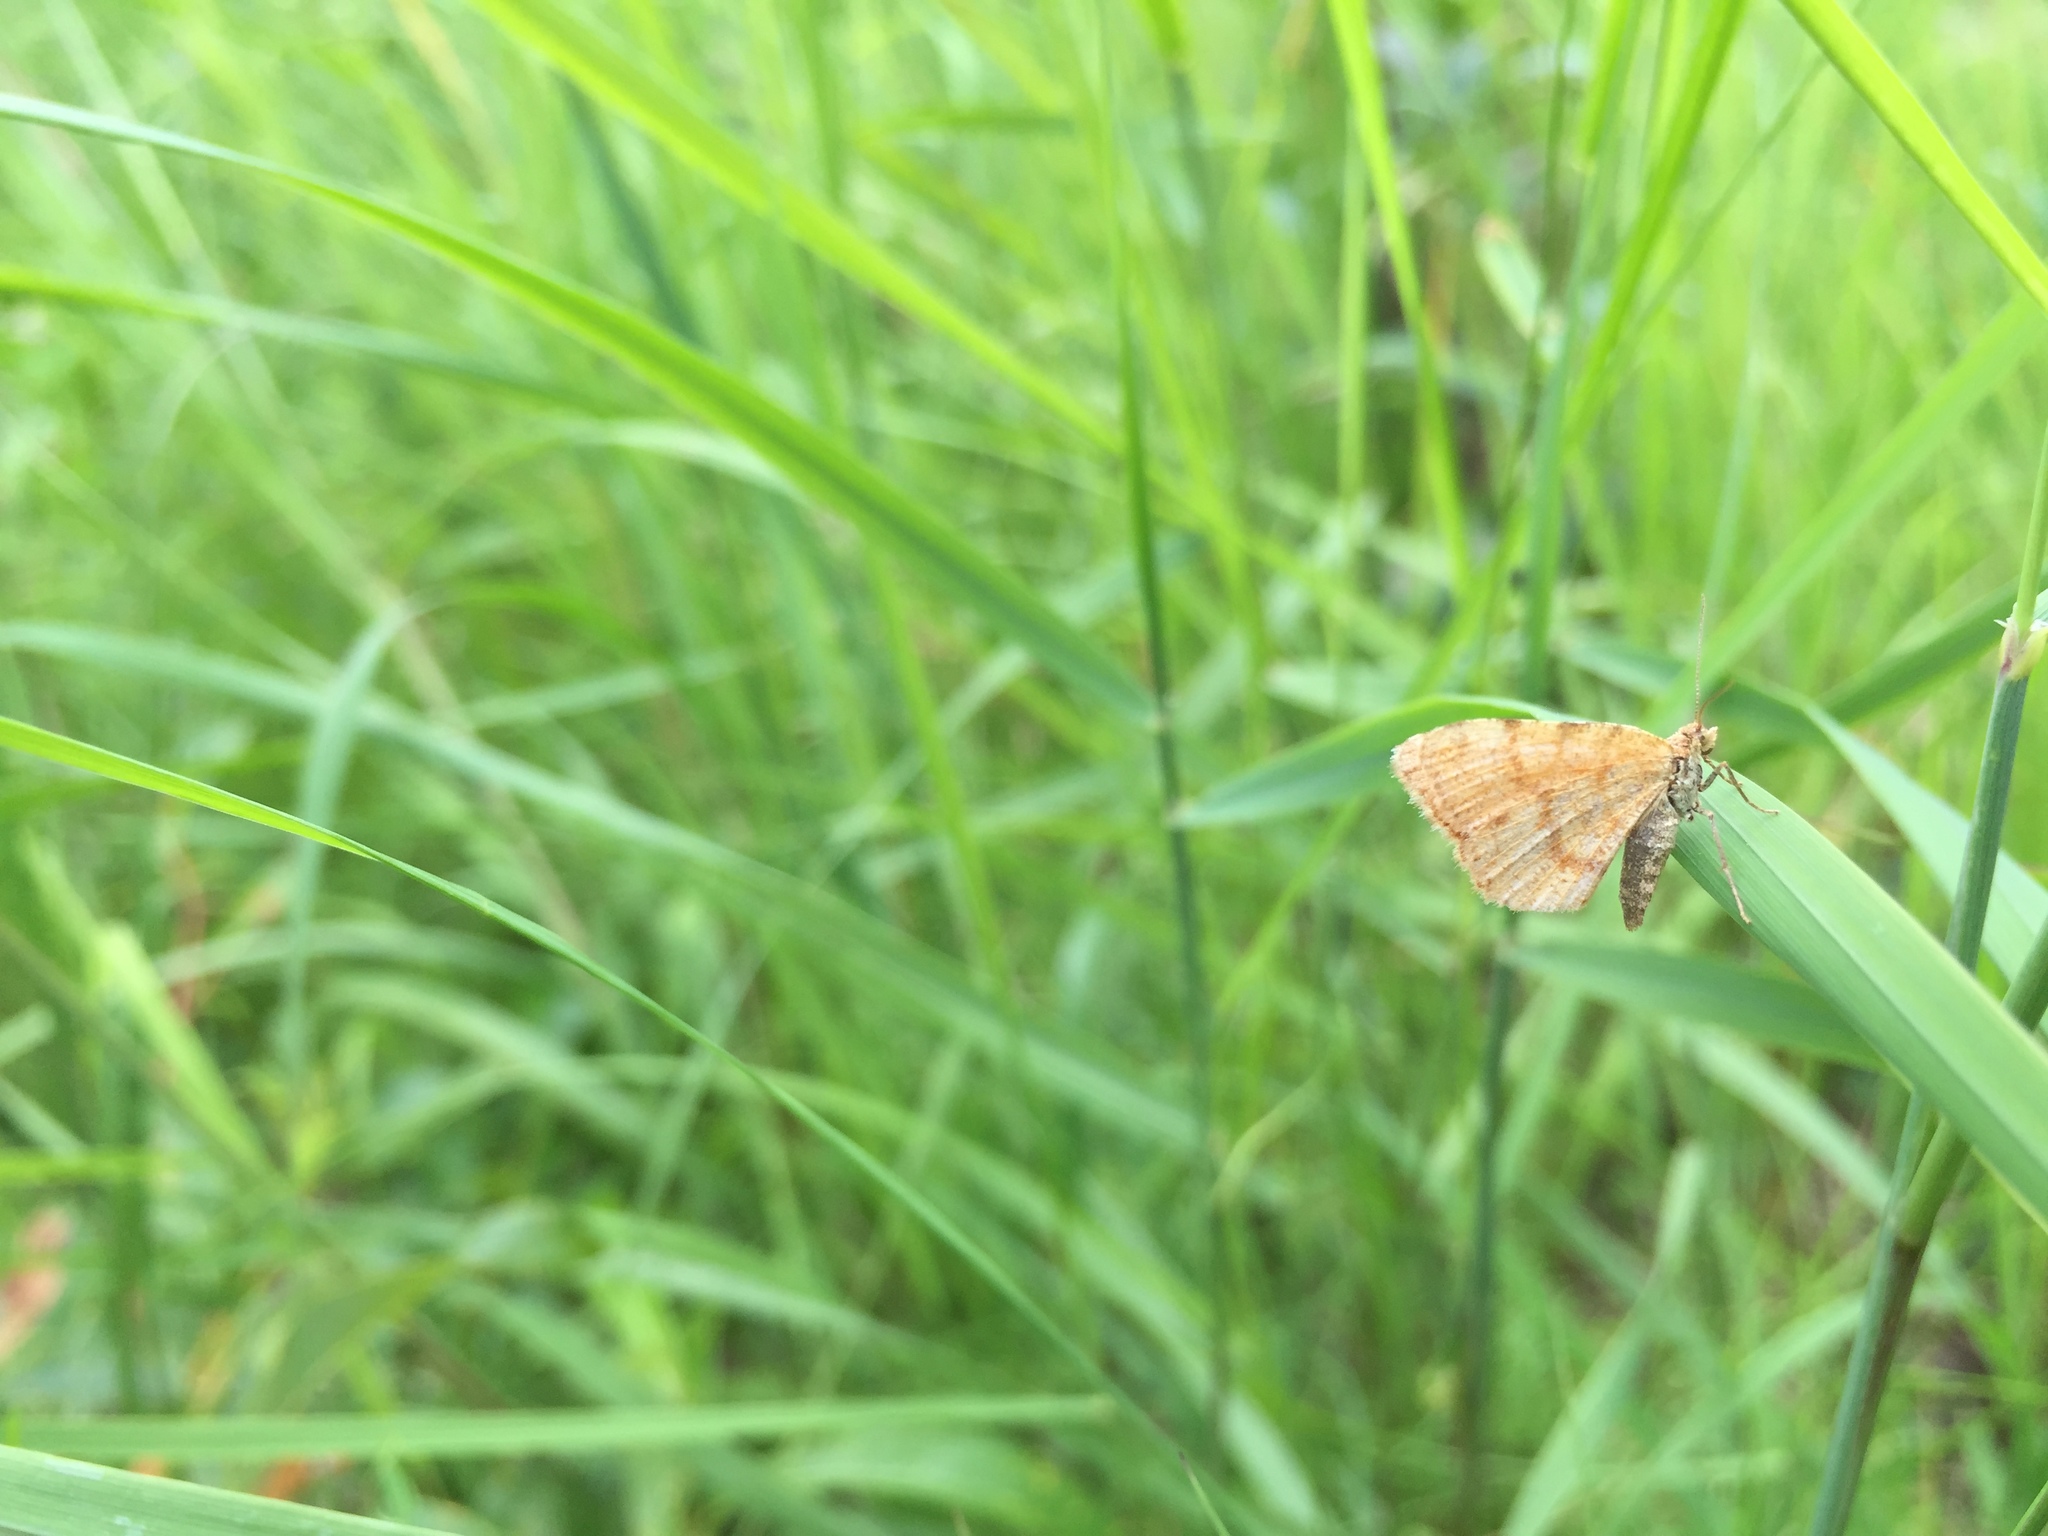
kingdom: Animalia
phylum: Arthropoda
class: Insecta
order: Lepidoptera
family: Geometridae
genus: Macaria
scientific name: Macaria brunneata
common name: Rannoch looper
